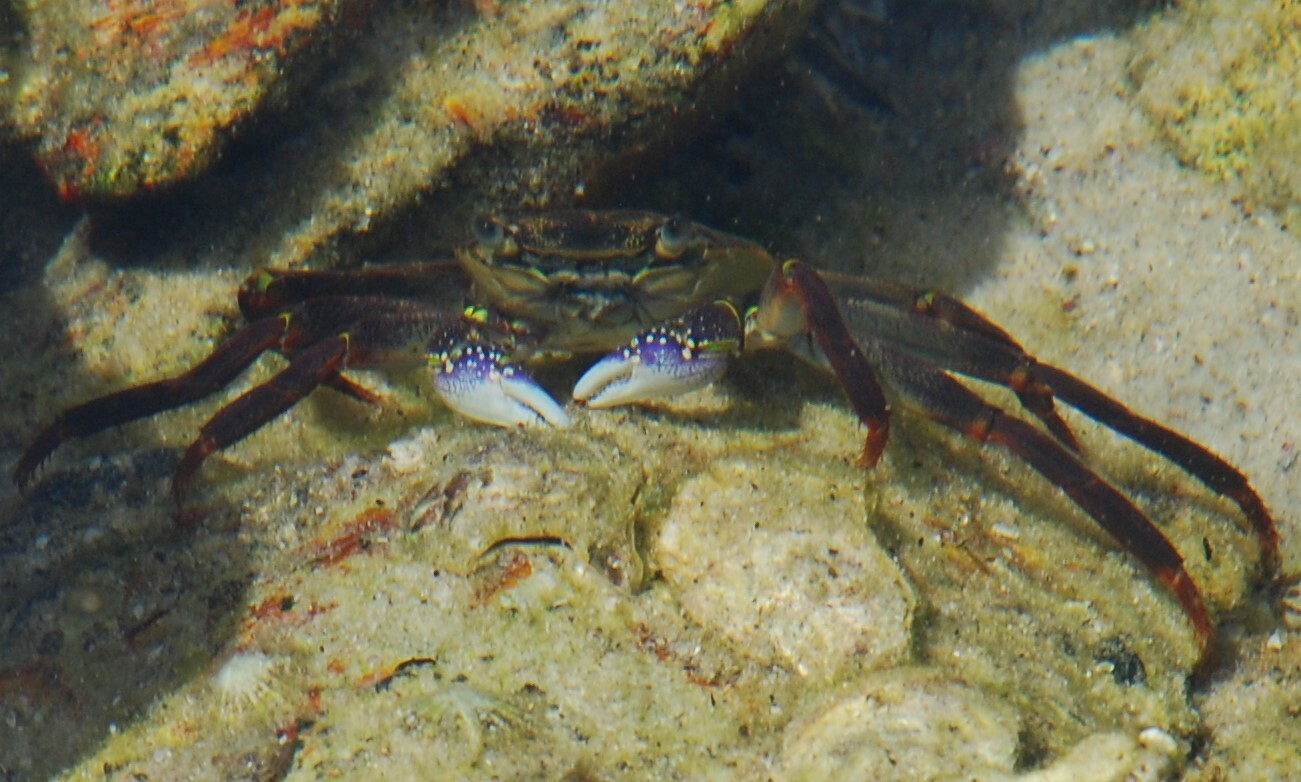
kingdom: Animalia
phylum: Arthropoda
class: Malacostraca
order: Decapoda
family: Grapsidae
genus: Leptograpsus
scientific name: Leptograpsus variegatus
